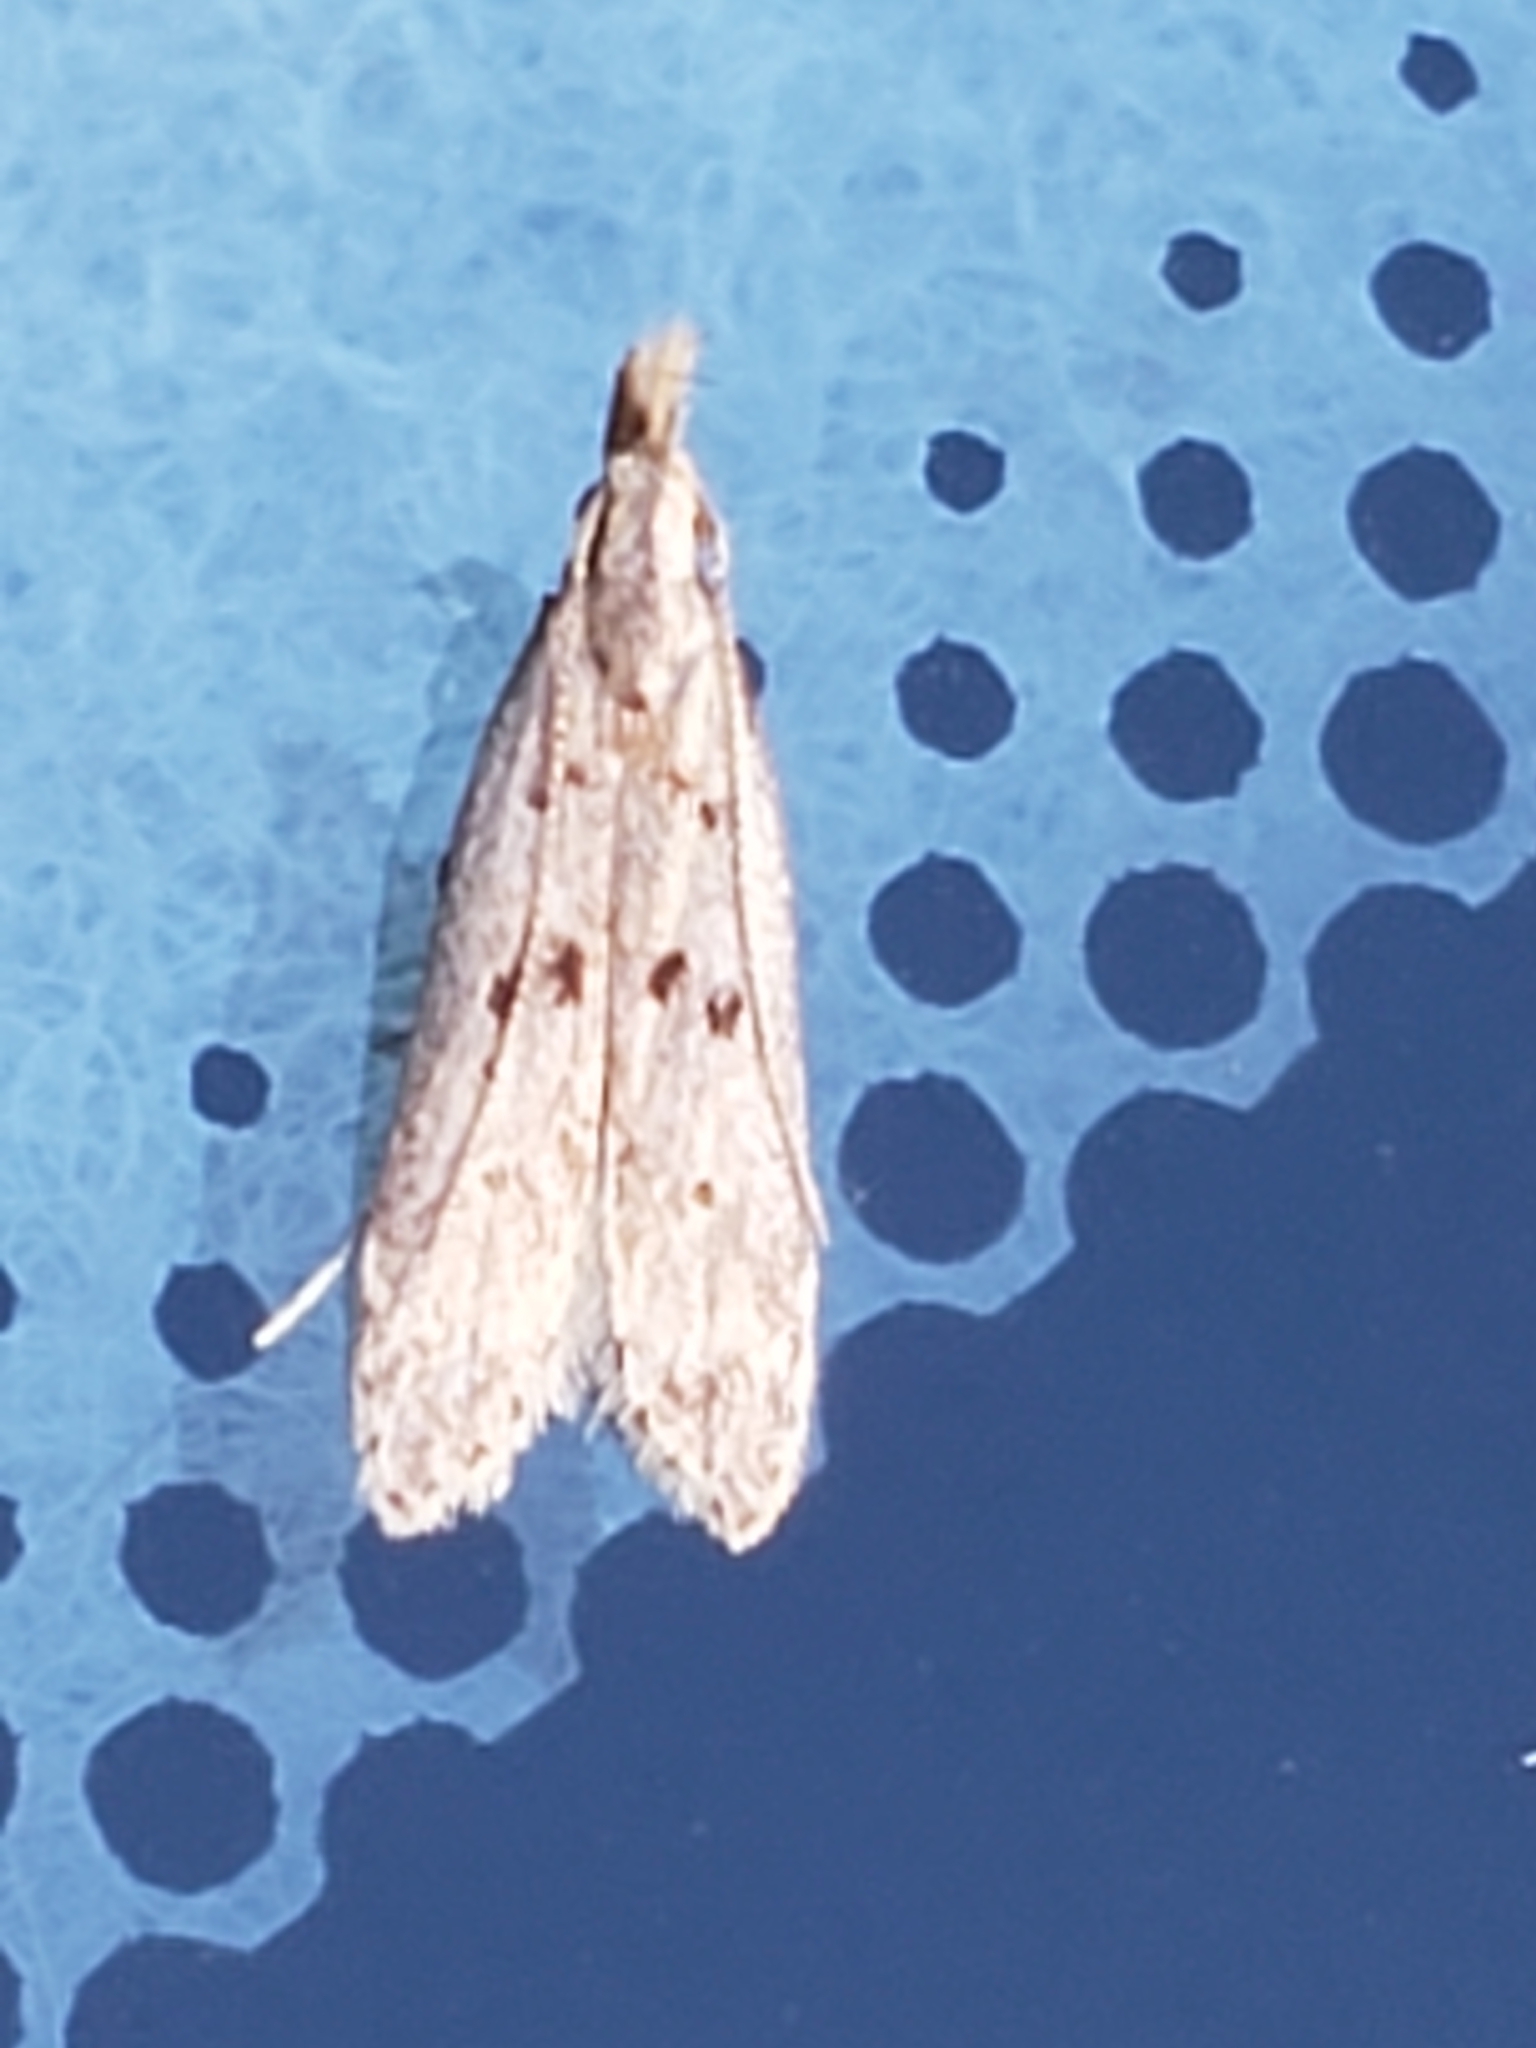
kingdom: Animalia
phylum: Arthropoda
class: Insecta
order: Lepidoptera
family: Gelechiidae
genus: Dichomeris
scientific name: Dichomeris punctipennella
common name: Many-spotted dichomeris moth
